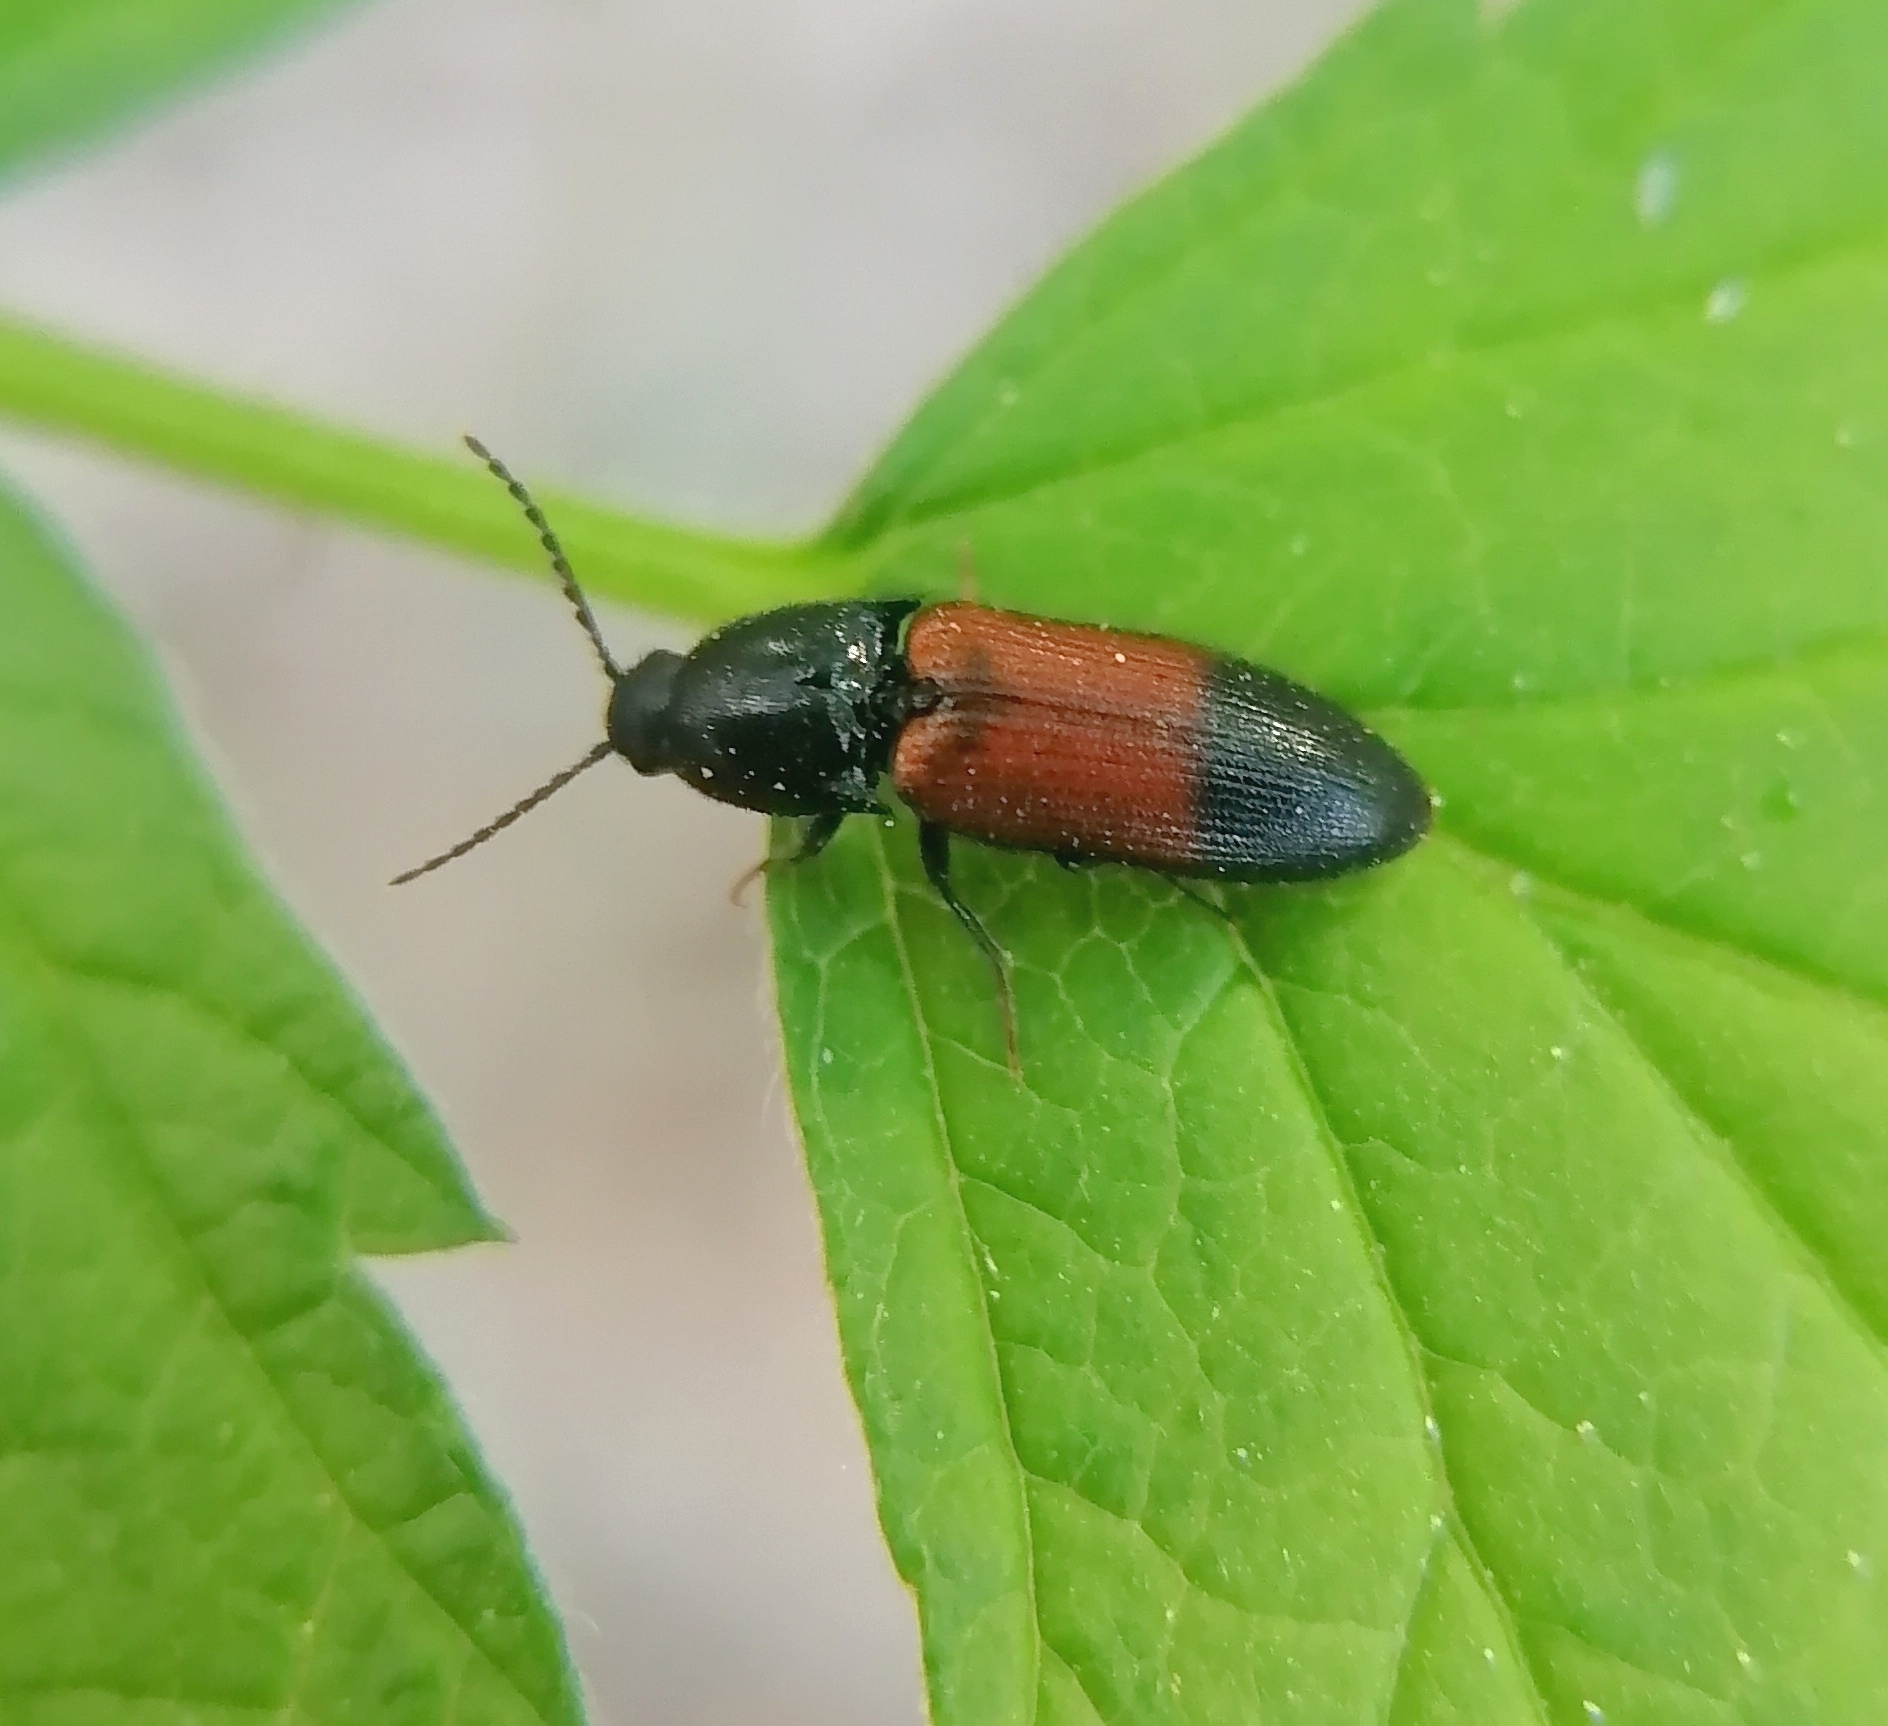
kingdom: Animalia
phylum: Arthropoda
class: Insecta
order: Coleoptera
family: Elateridae
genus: Ampedus
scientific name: Ampedus balteatus
